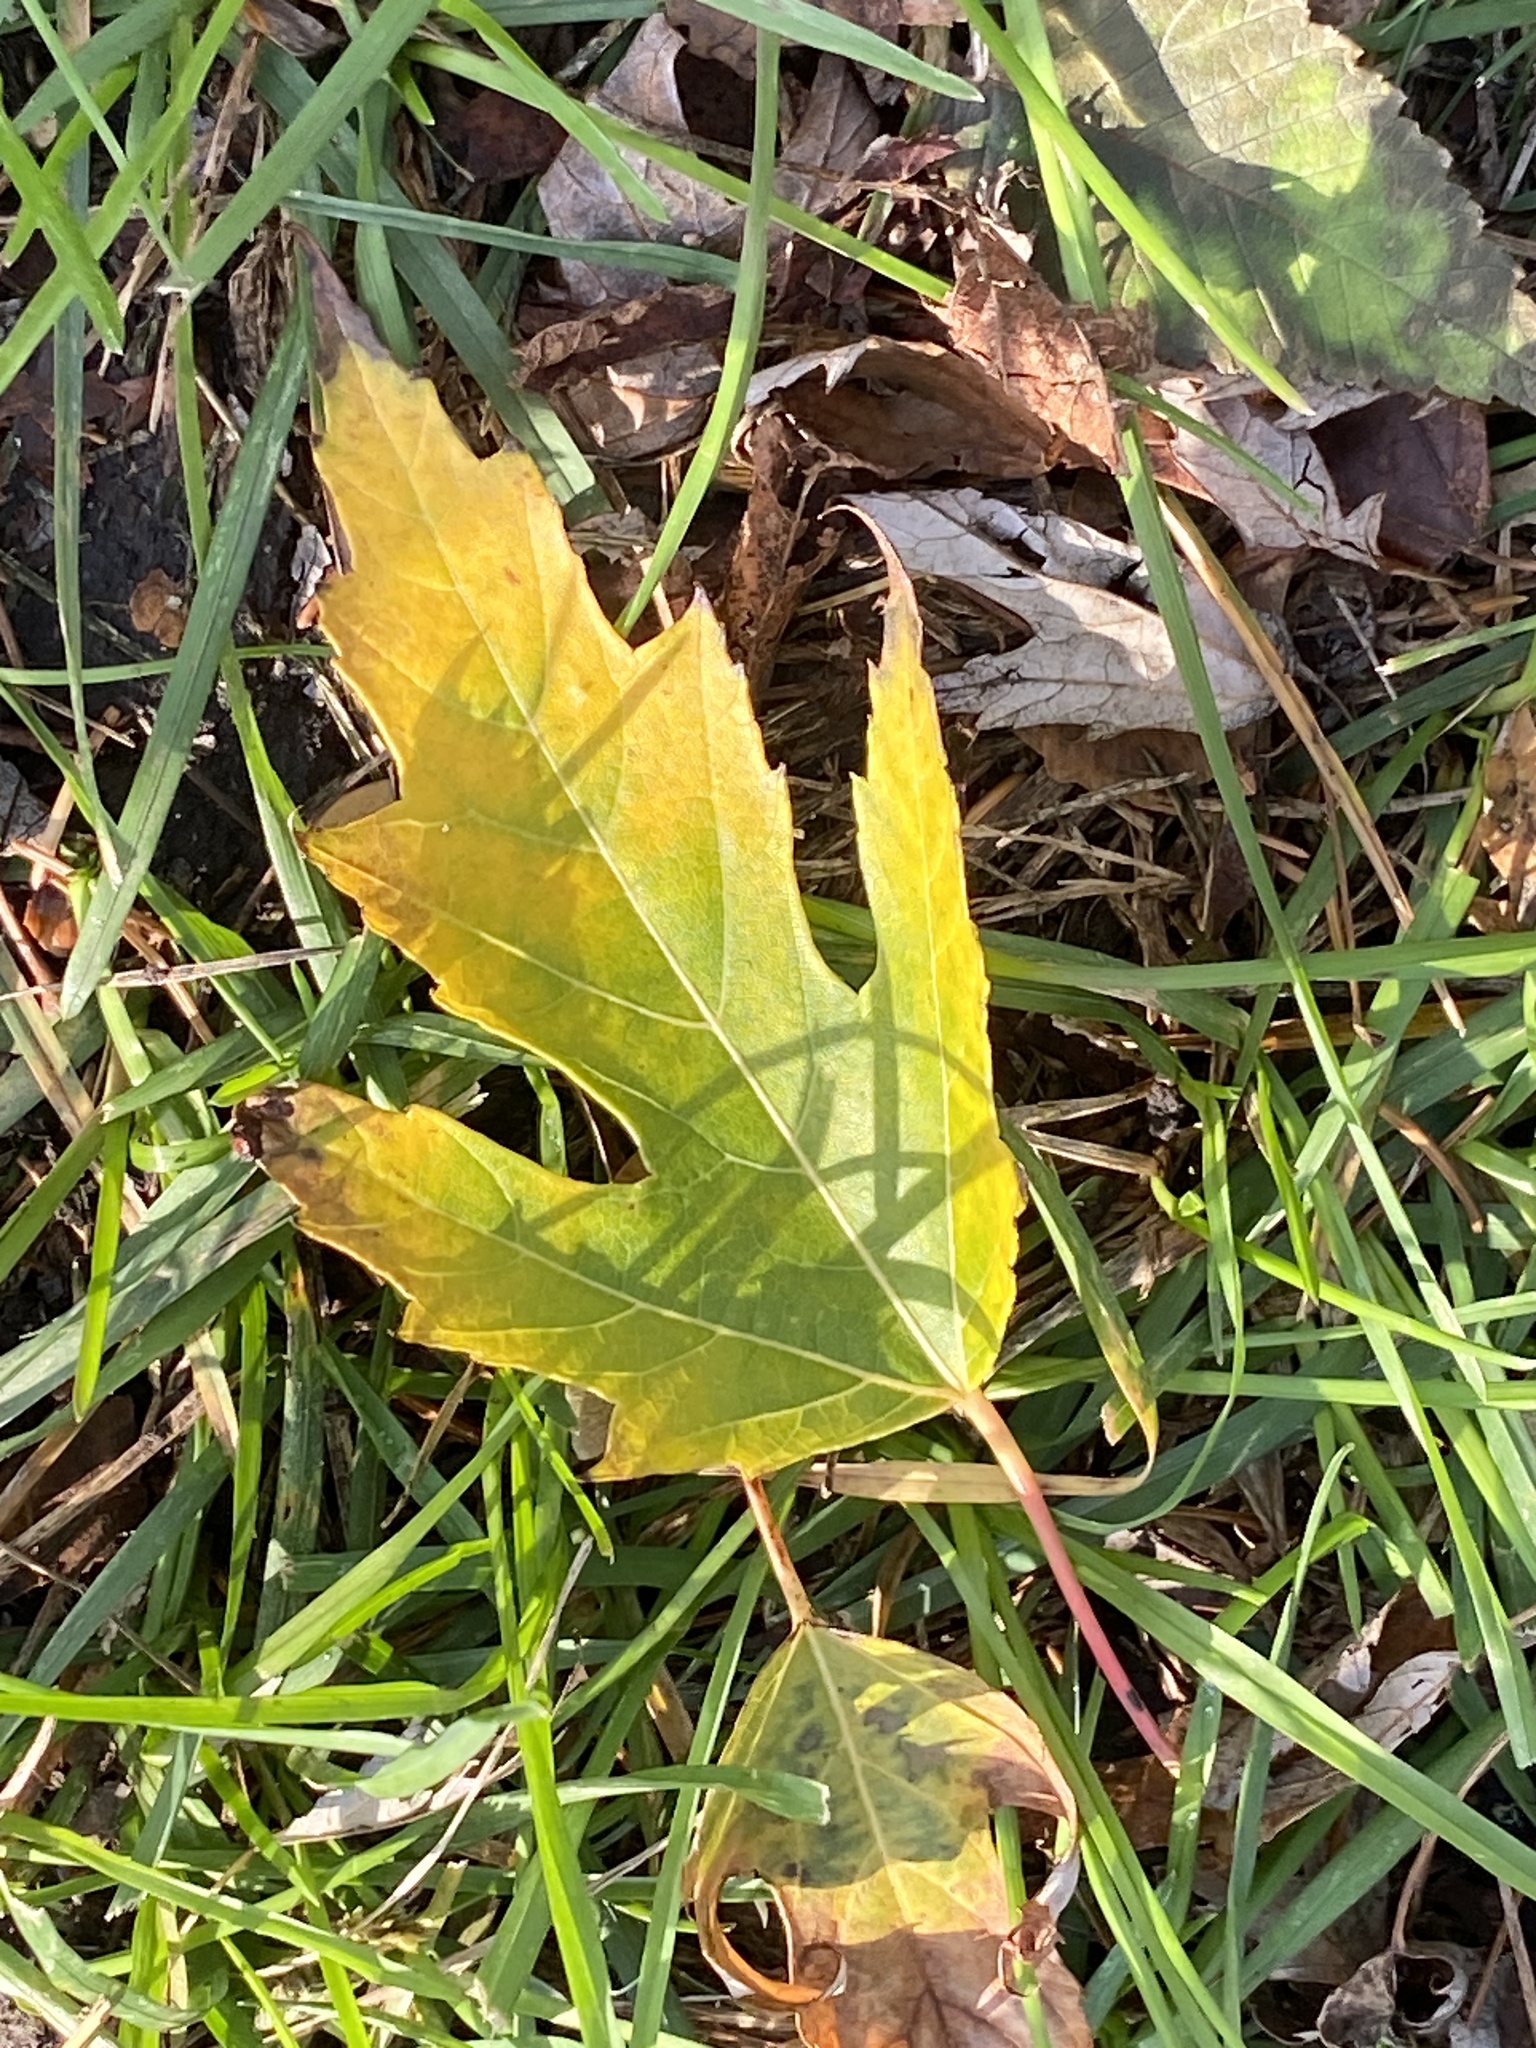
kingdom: Plantae
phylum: Tracheophyta
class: Magnoliopsida
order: Sapindales
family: Sapindaceae
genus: Acer
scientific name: Acer saccharinum
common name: Silver maple
